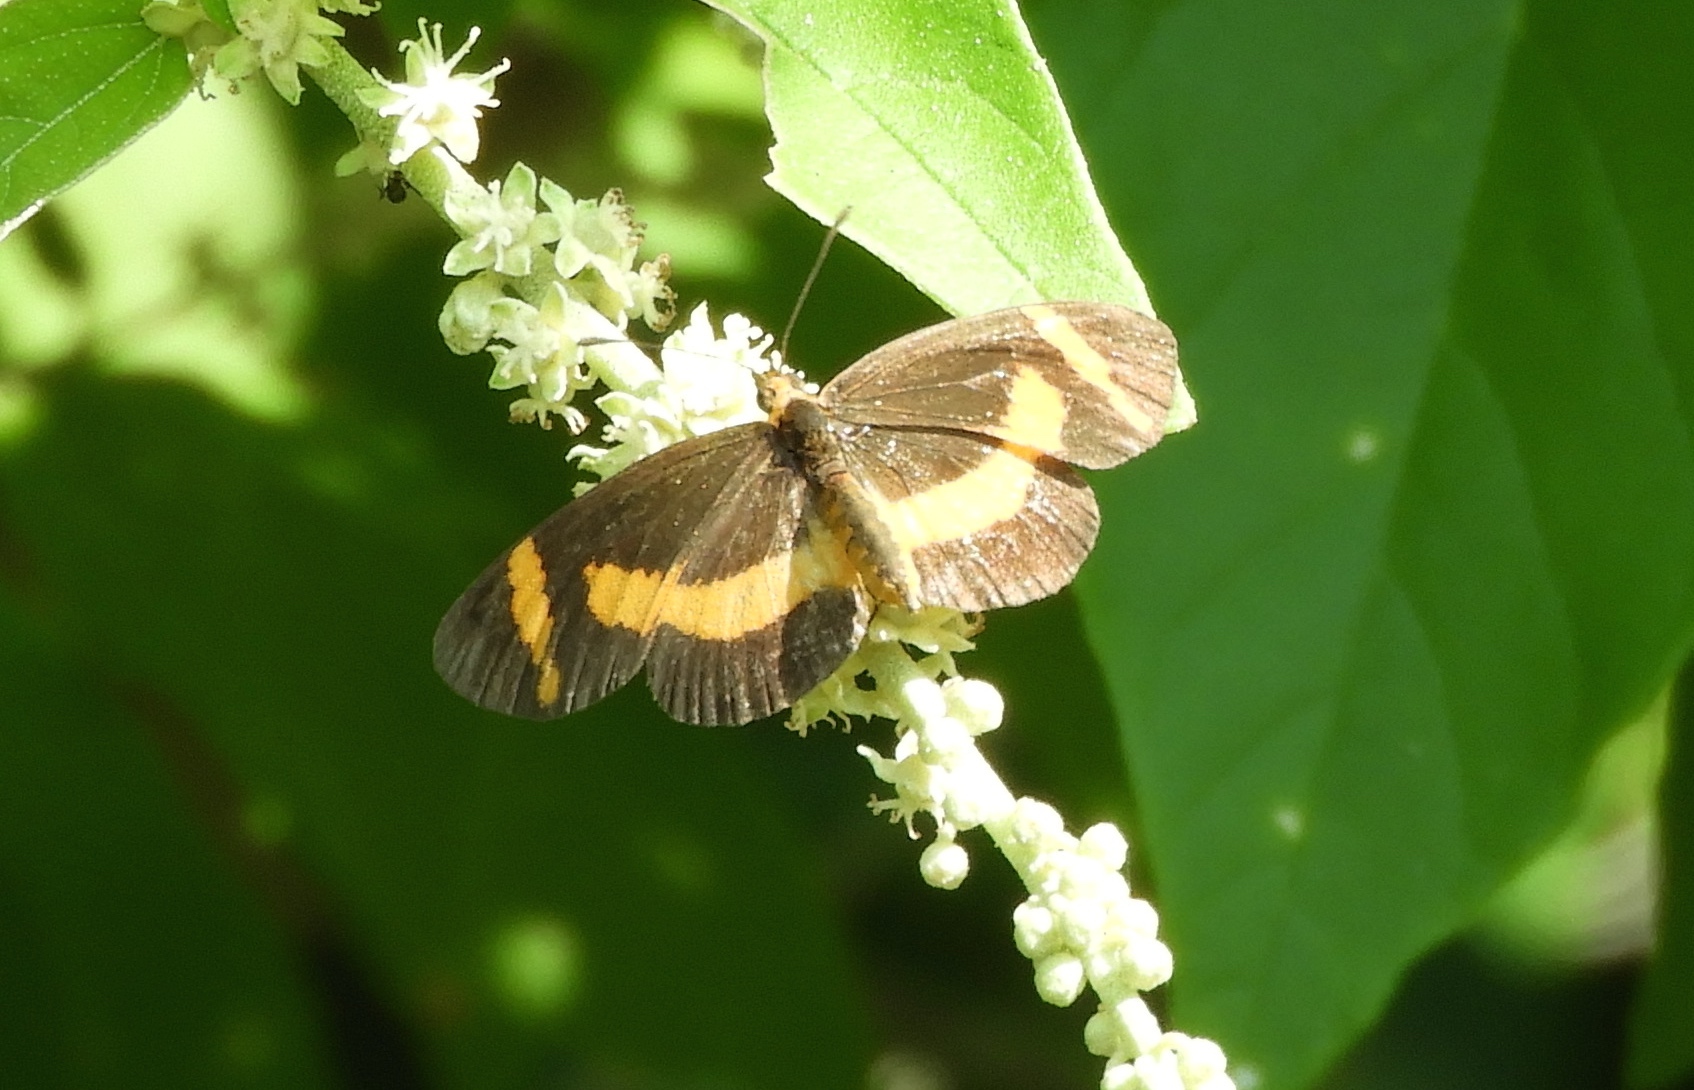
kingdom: Animalia
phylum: Arthropoda
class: Insecta
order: Lepidoptera
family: Nymphalidae
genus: Microtia
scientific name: Microtia elva
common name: Elf
